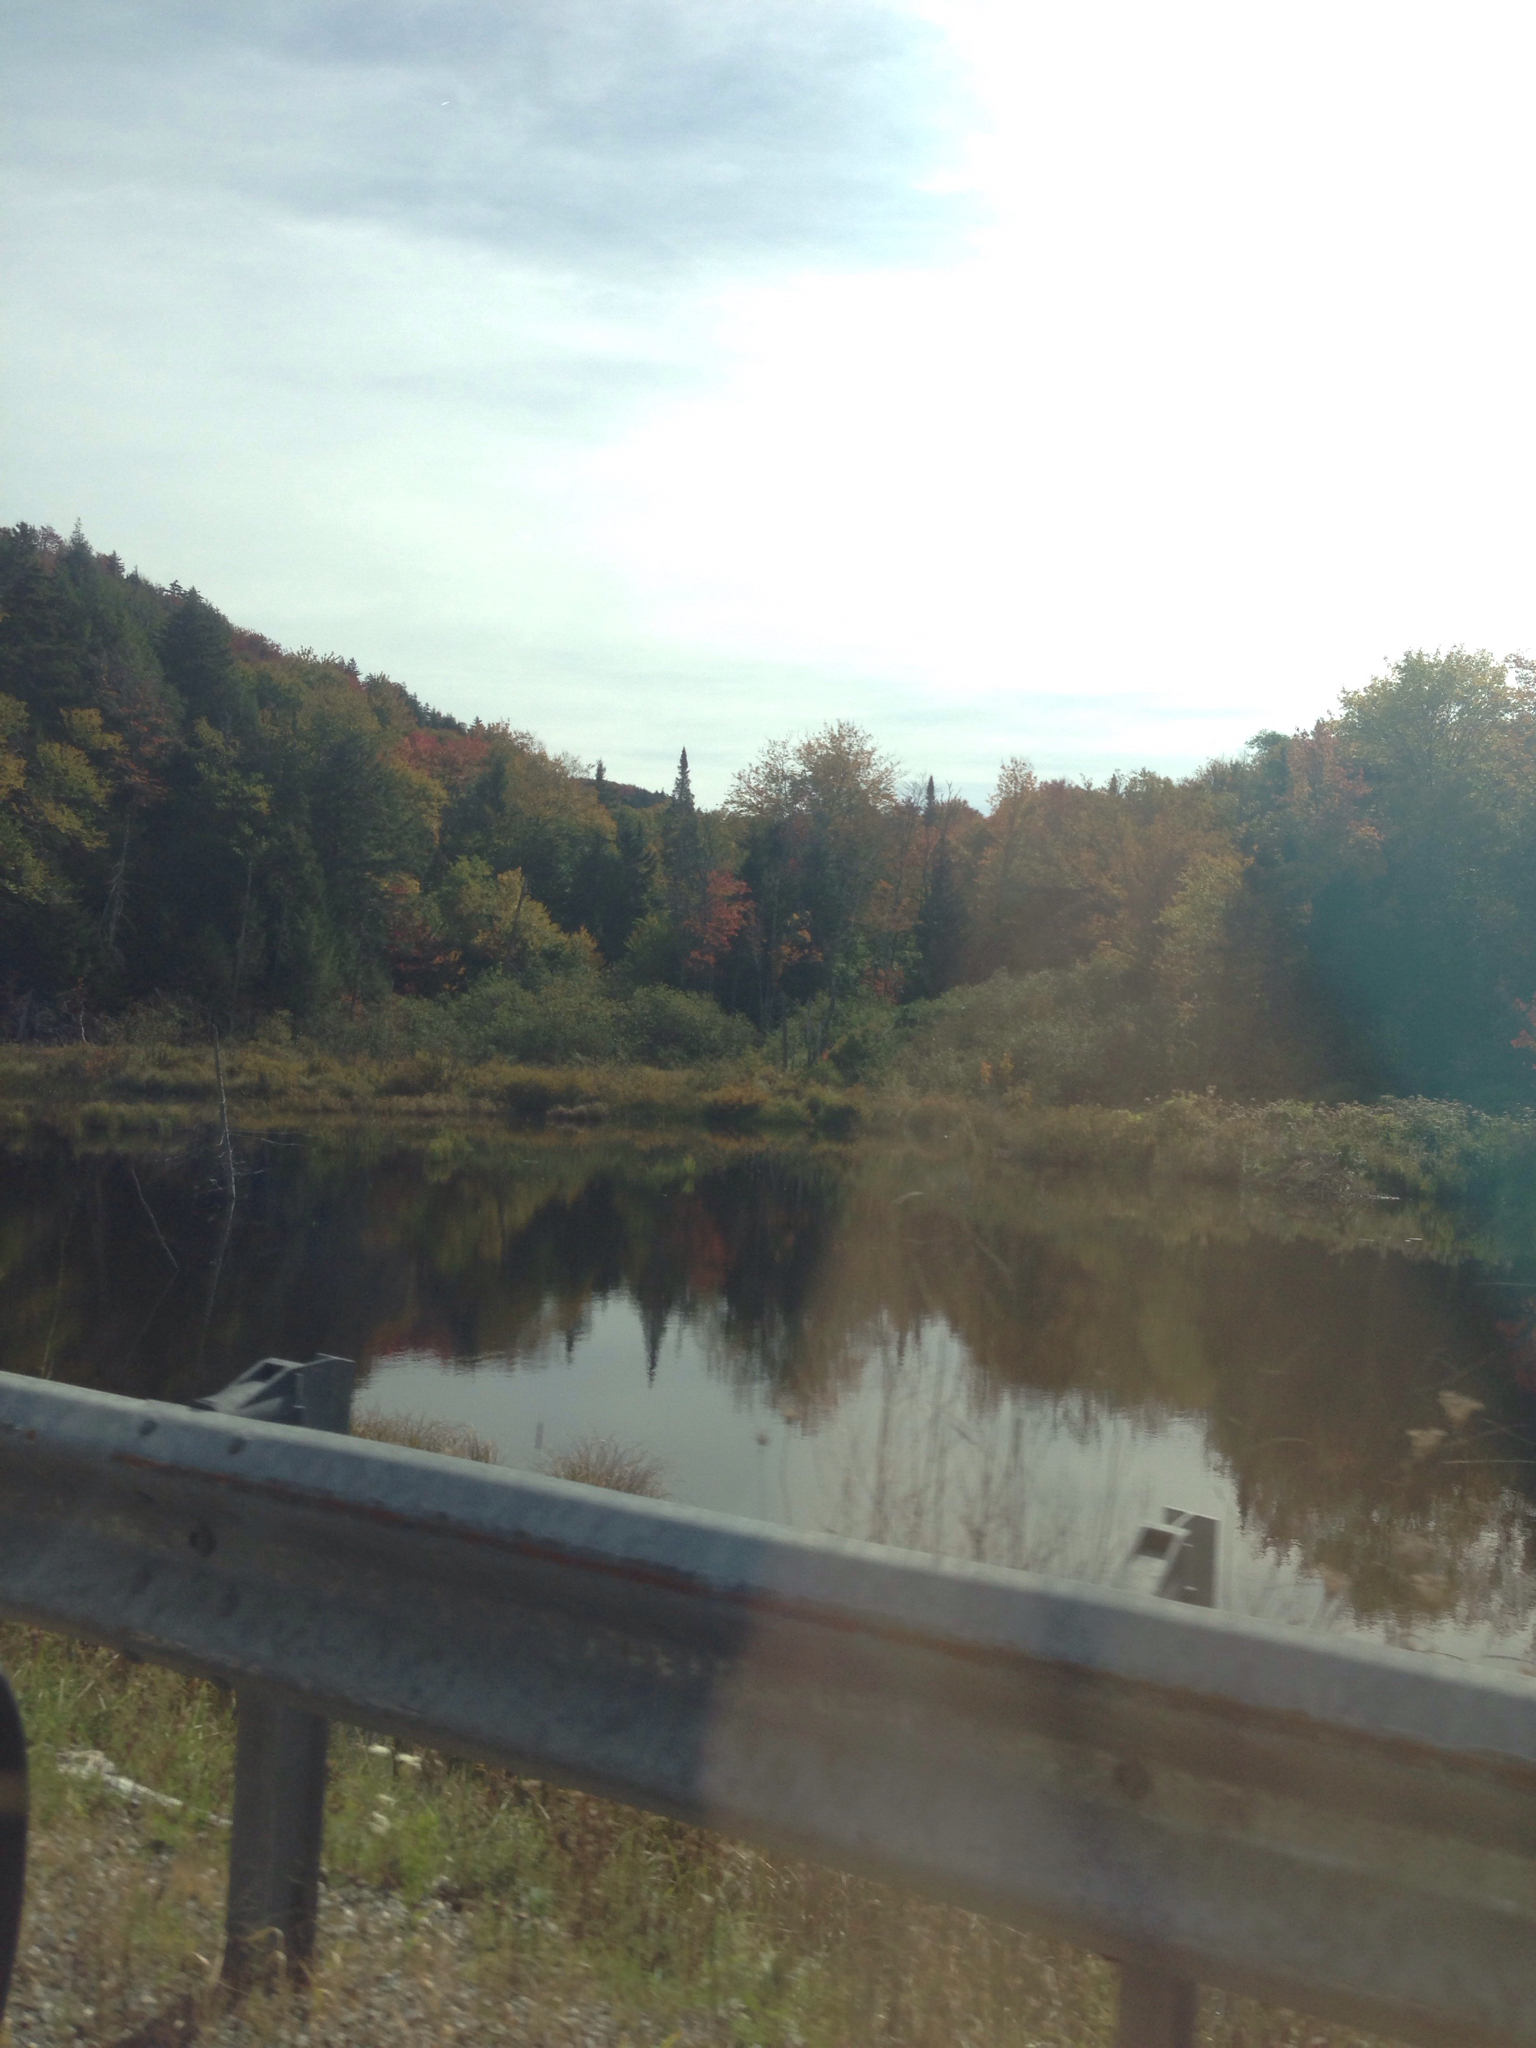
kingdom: Plantae
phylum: Tracheophyta
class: Pinopsida
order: Pinales
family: Pinaceae
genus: Abies
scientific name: Abies balsamea
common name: Balsam fir
